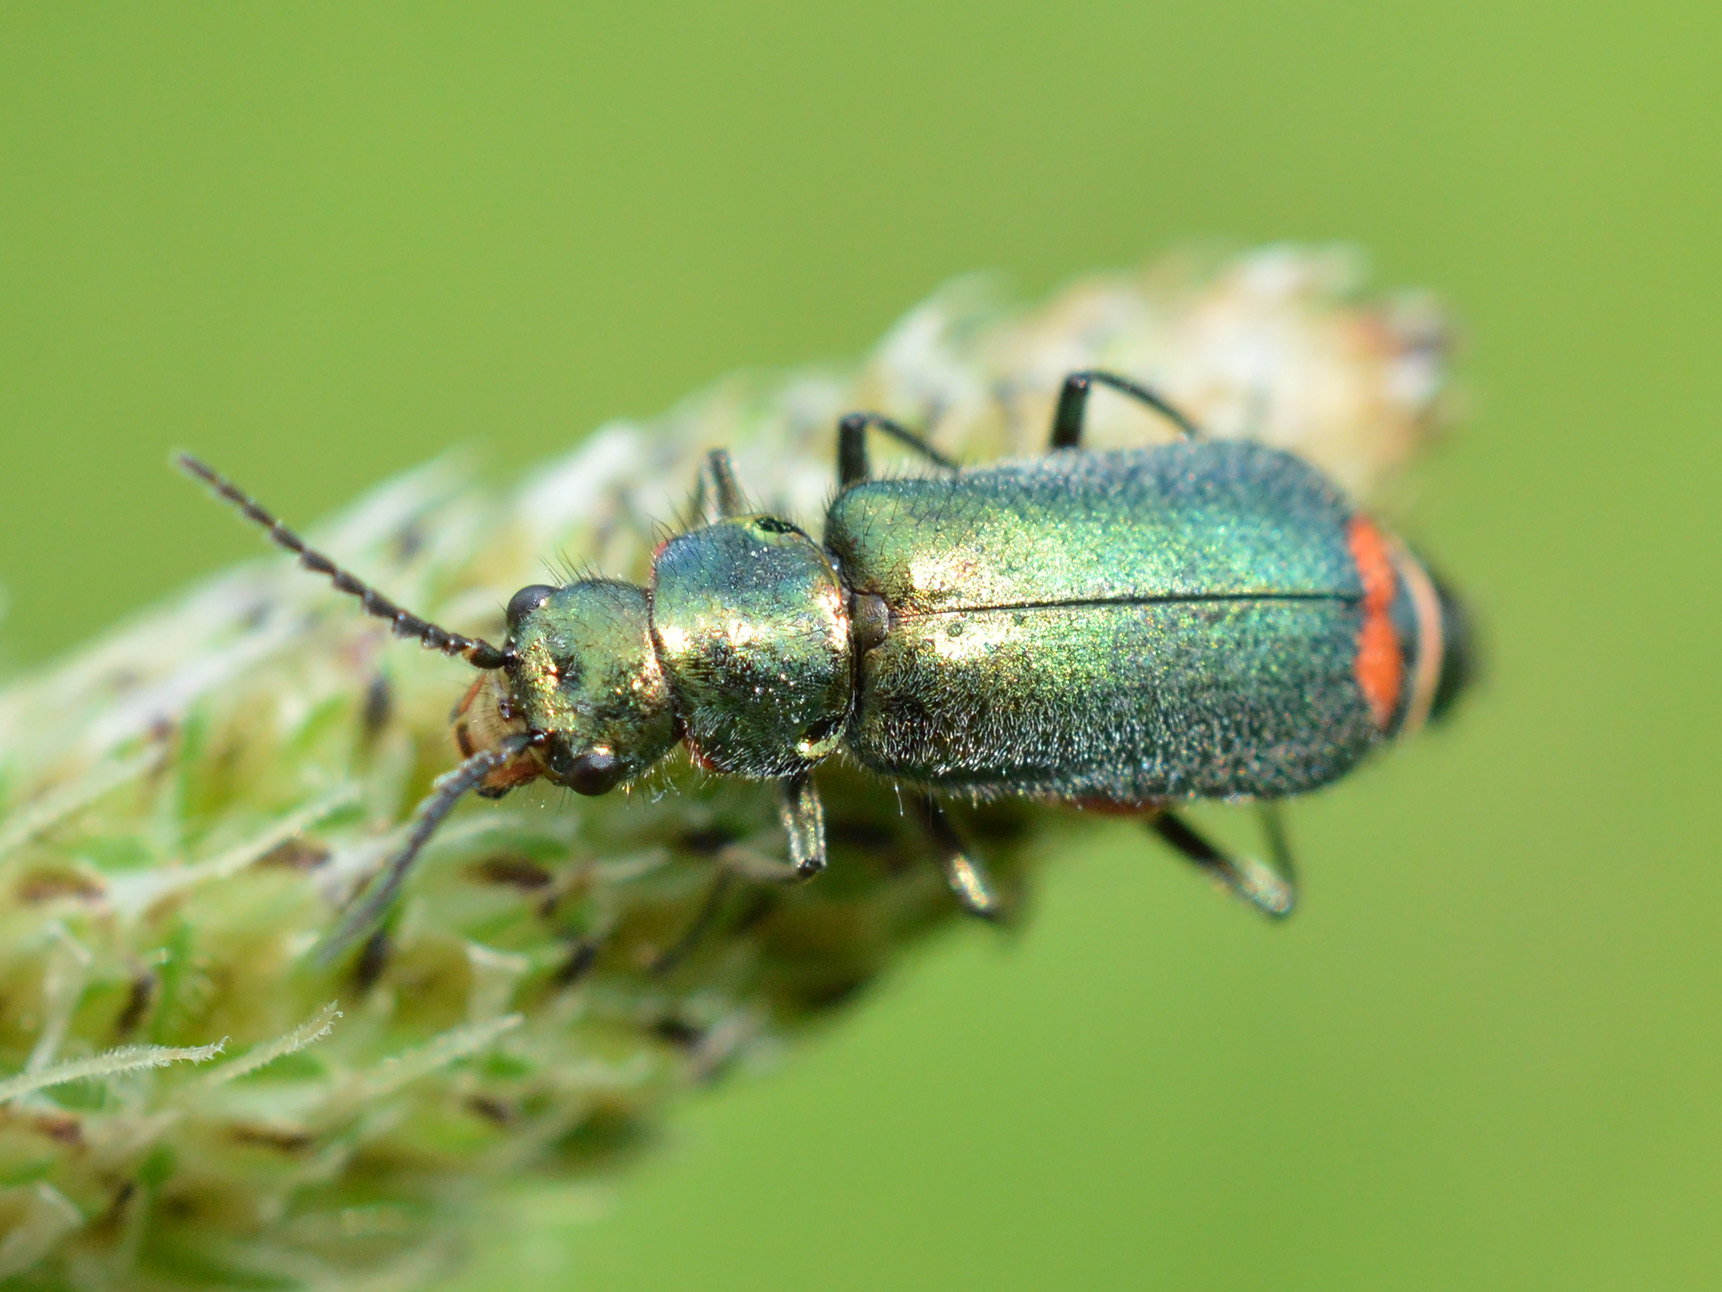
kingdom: Animalia
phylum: Arthropoda
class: Insecta
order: Coleoptera
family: Melyridae
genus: Malachius
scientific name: Malachius bipustulatus
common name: Malachite beetle
